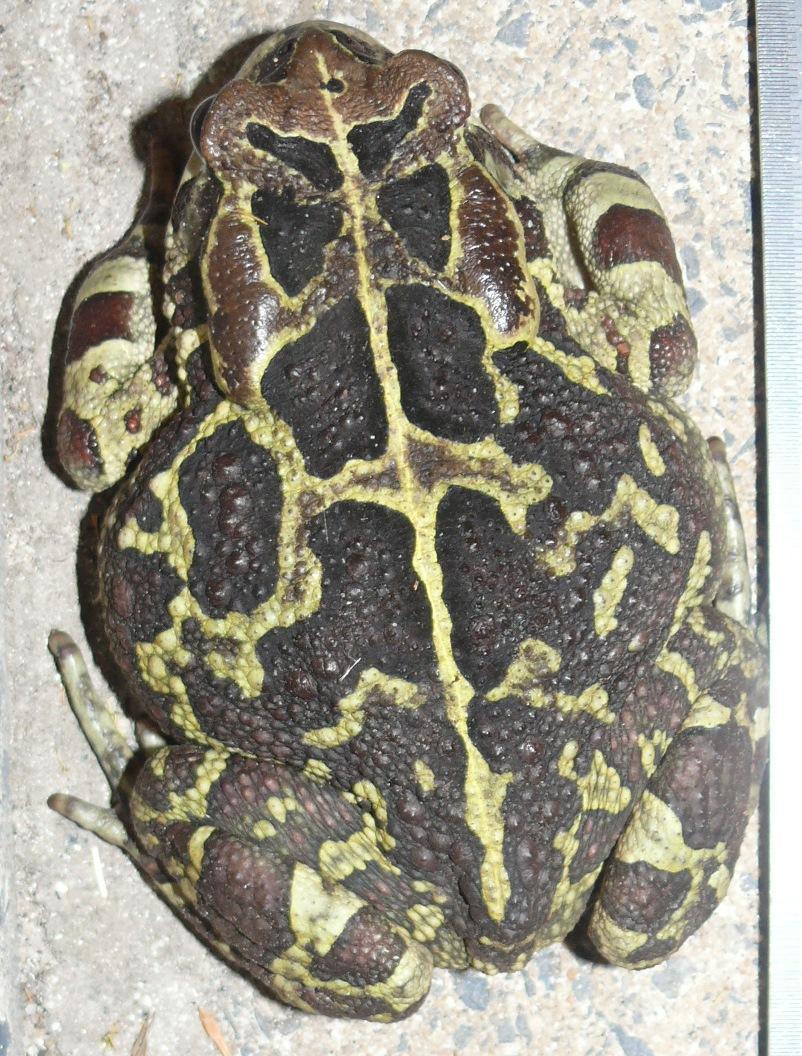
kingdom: Animalia
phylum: Chordata
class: Amphibia
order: Anura
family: Bufonidae
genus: Sclerophrys
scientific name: Sclerophrys pantherina
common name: Panther toad
